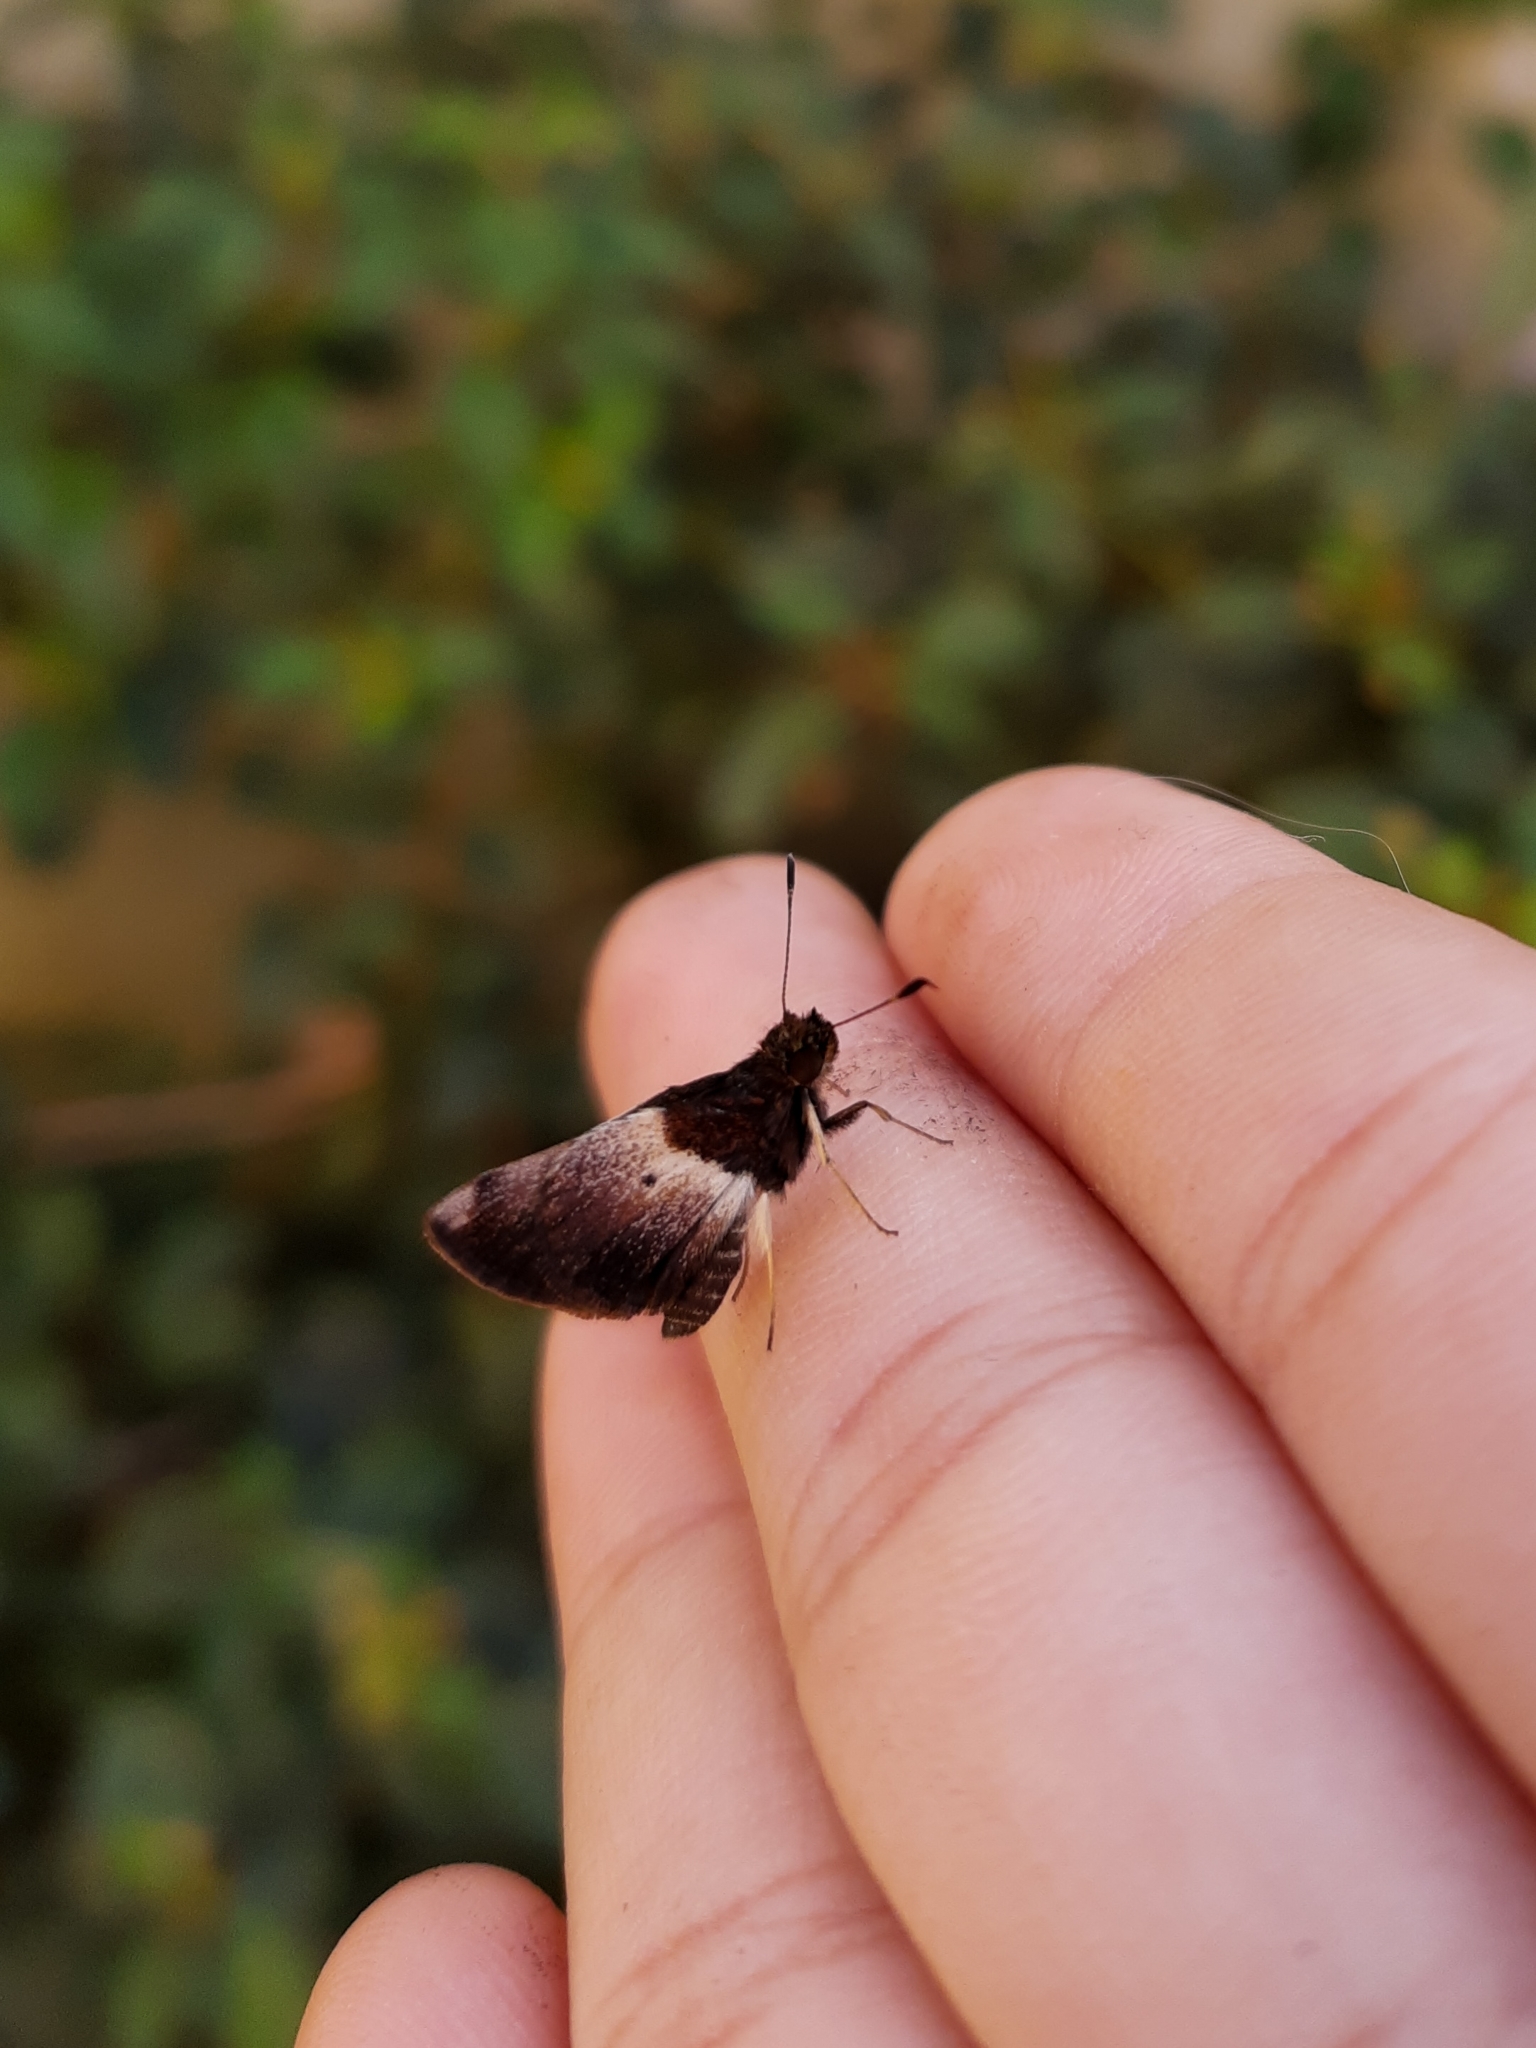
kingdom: Animalia
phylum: Arthropoda
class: Insecta
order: Lepidoptera
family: Hesperiidae
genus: Moeris
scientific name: Moeris remus
